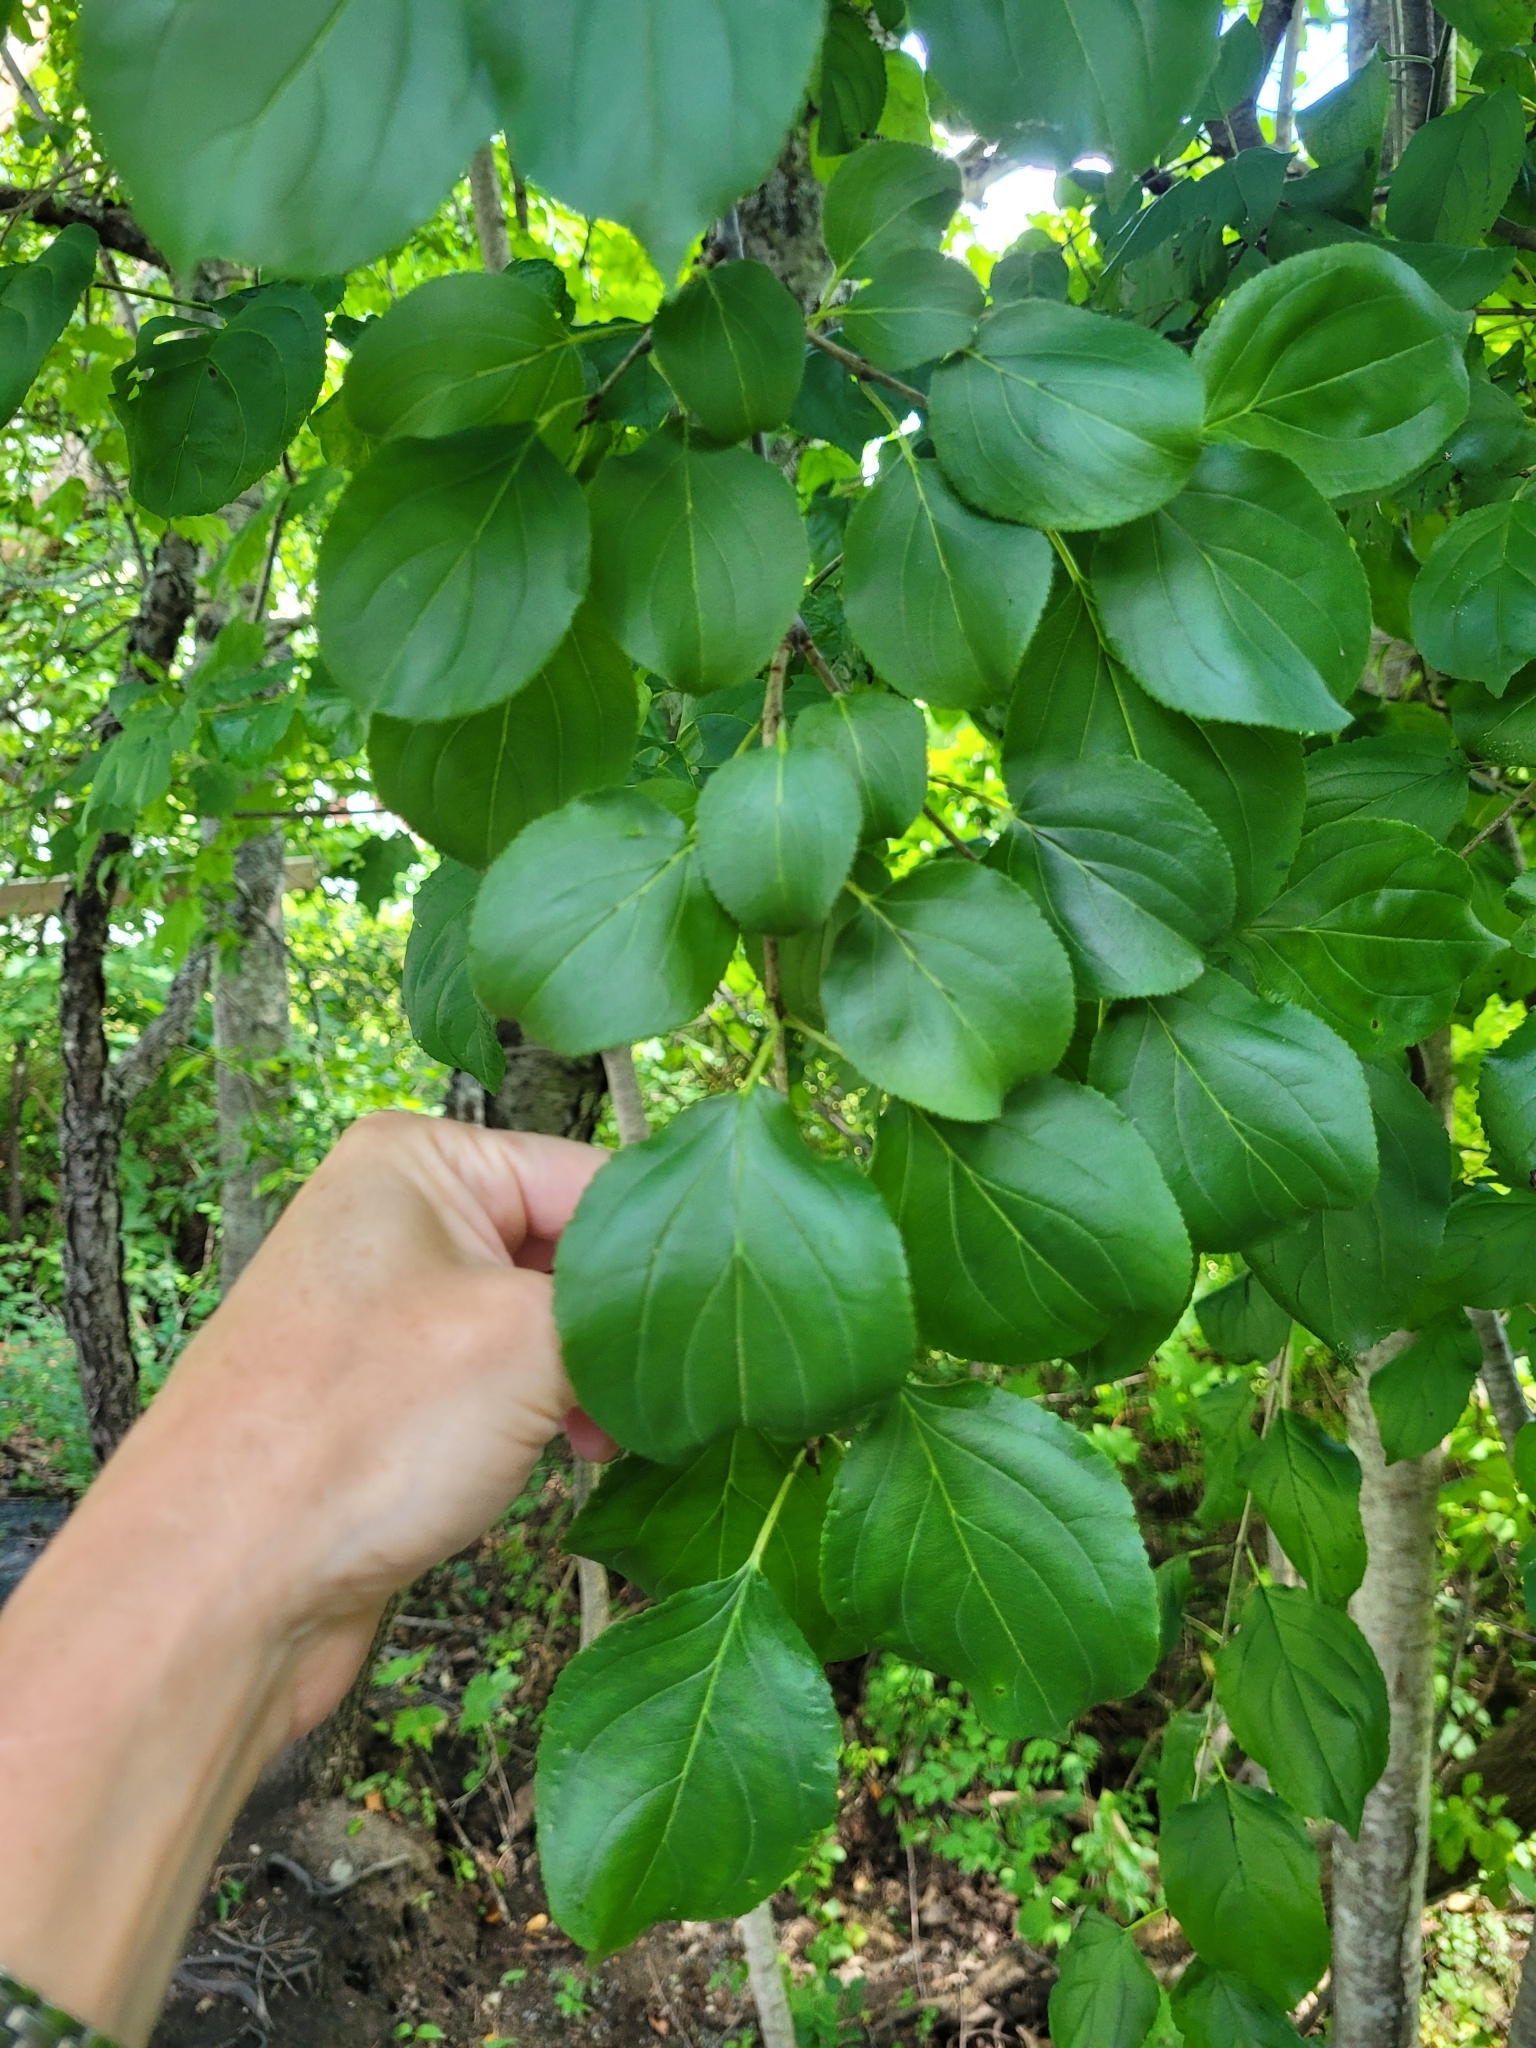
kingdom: Plantae
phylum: Tracheophyta
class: Magnoliopsida
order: Rosales
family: Rhamnaceae
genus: Rhamnus
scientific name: Rhamnus cathartica
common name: Common buckthorn
